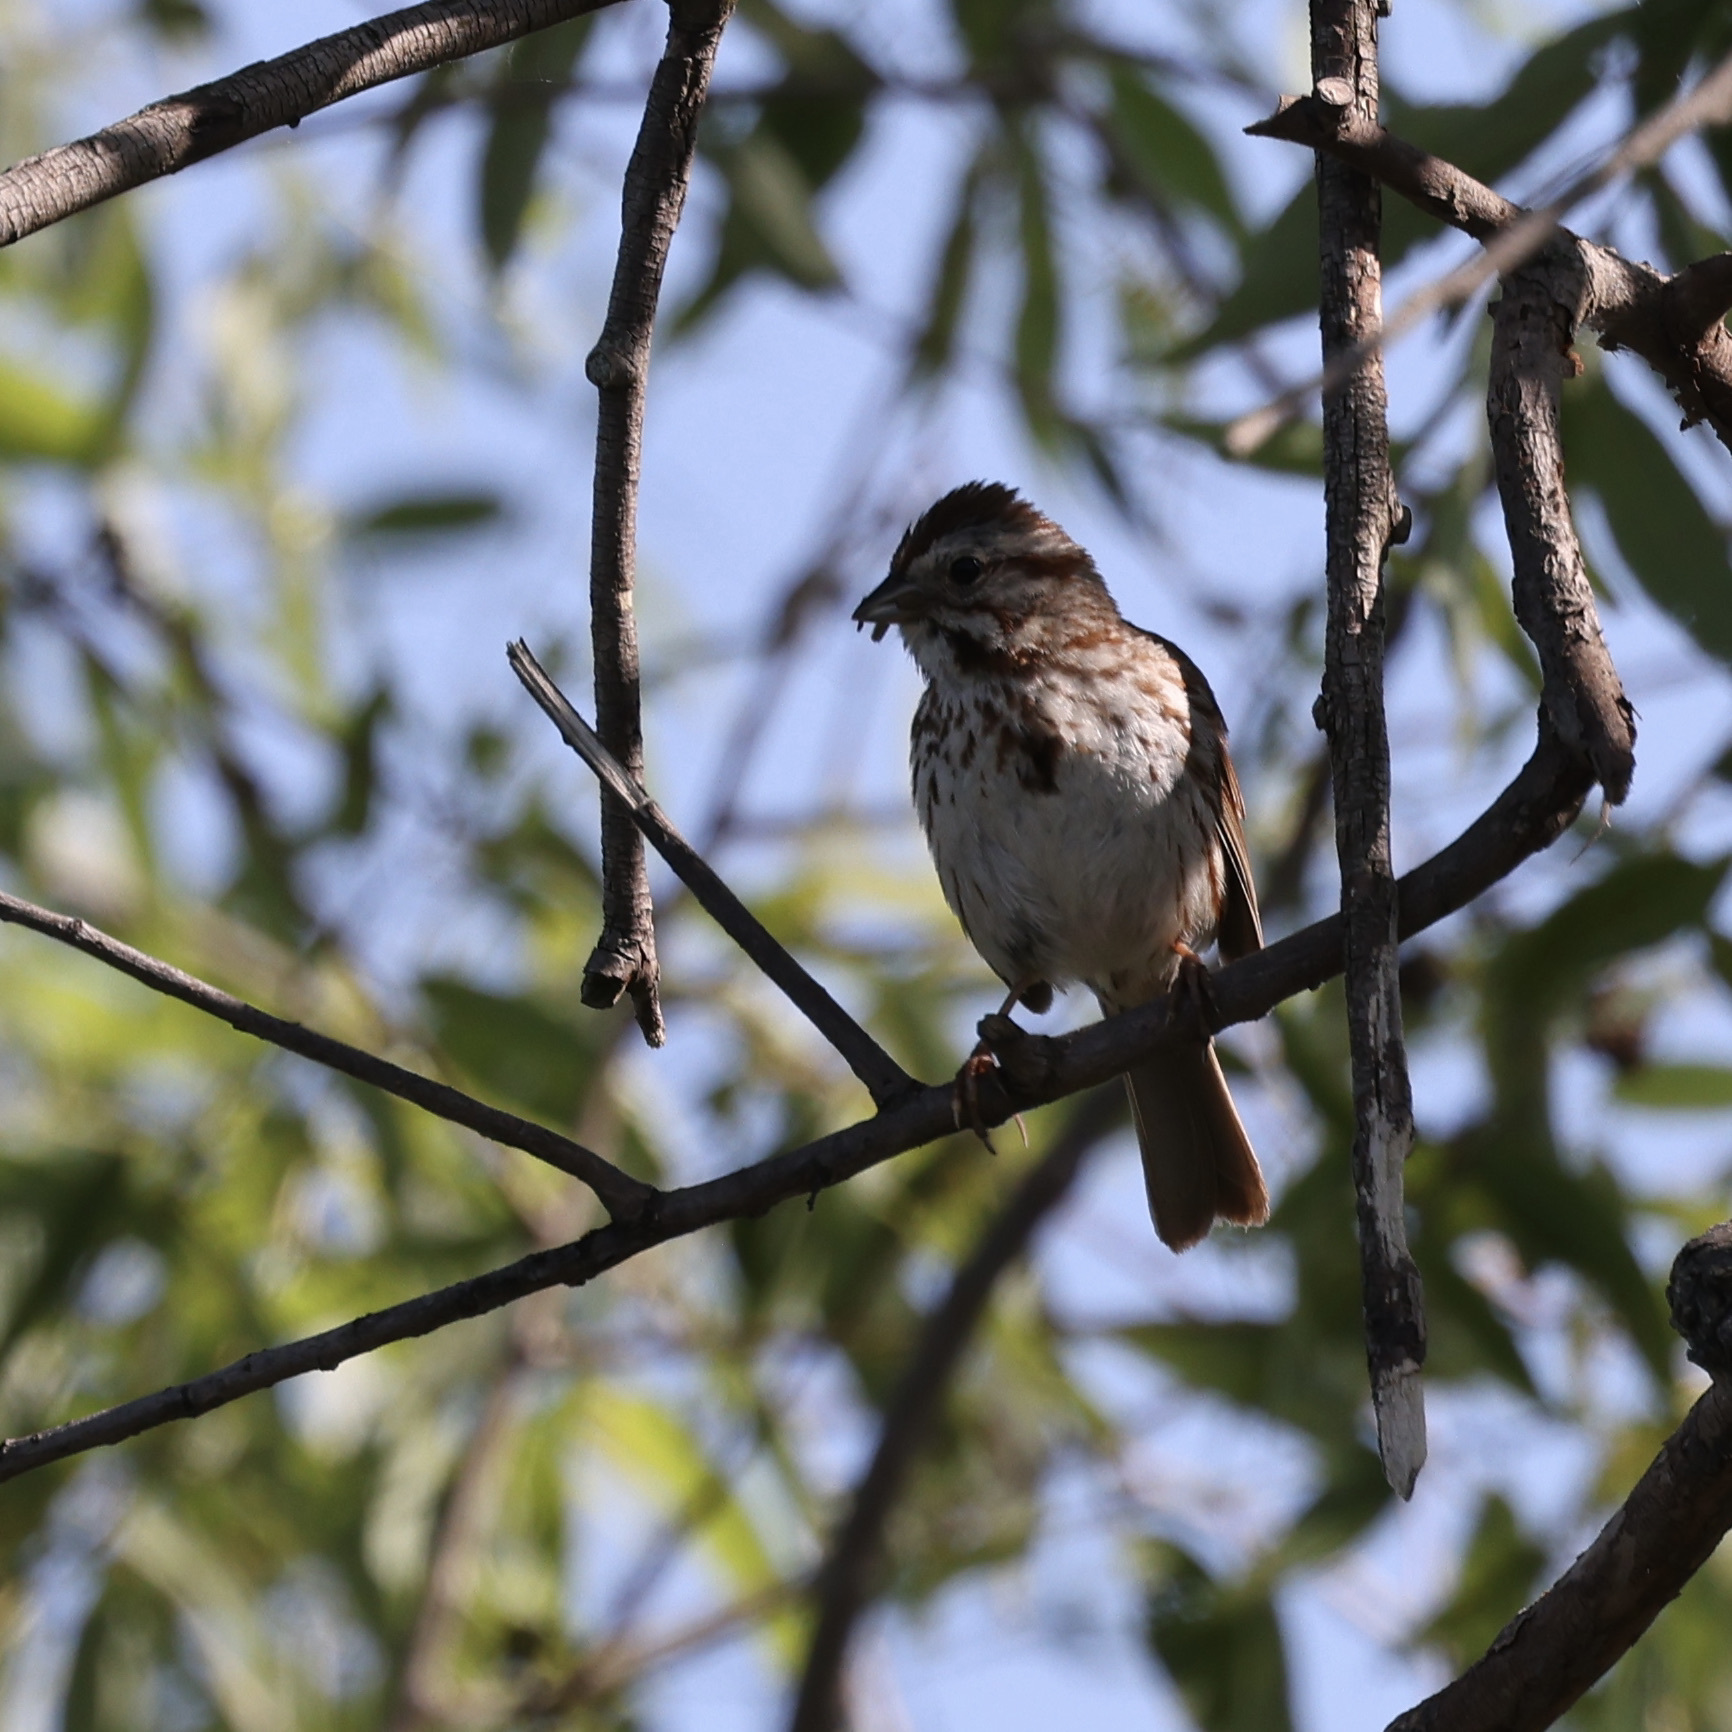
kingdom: Animalia
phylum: Chordata
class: Aves
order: Passeriformes
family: Passerellidae
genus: Melospiza
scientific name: Melospiza melodia
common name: Song sparrow
